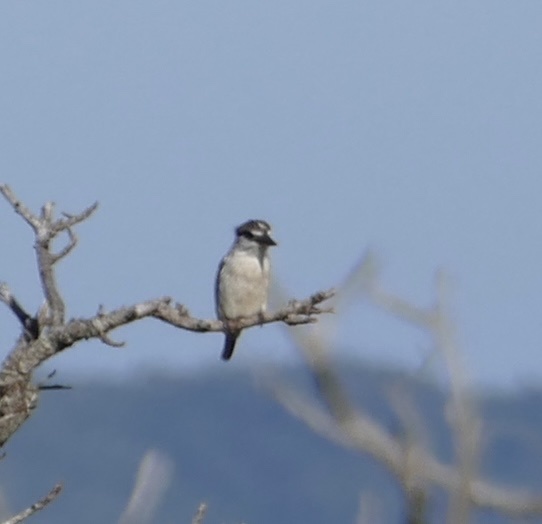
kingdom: Animalia
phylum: Chordata
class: Aves
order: Coraciiformes
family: Alcedinidae
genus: Halcyon
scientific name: Halcyon chelicuti
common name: Striped kingfisher
